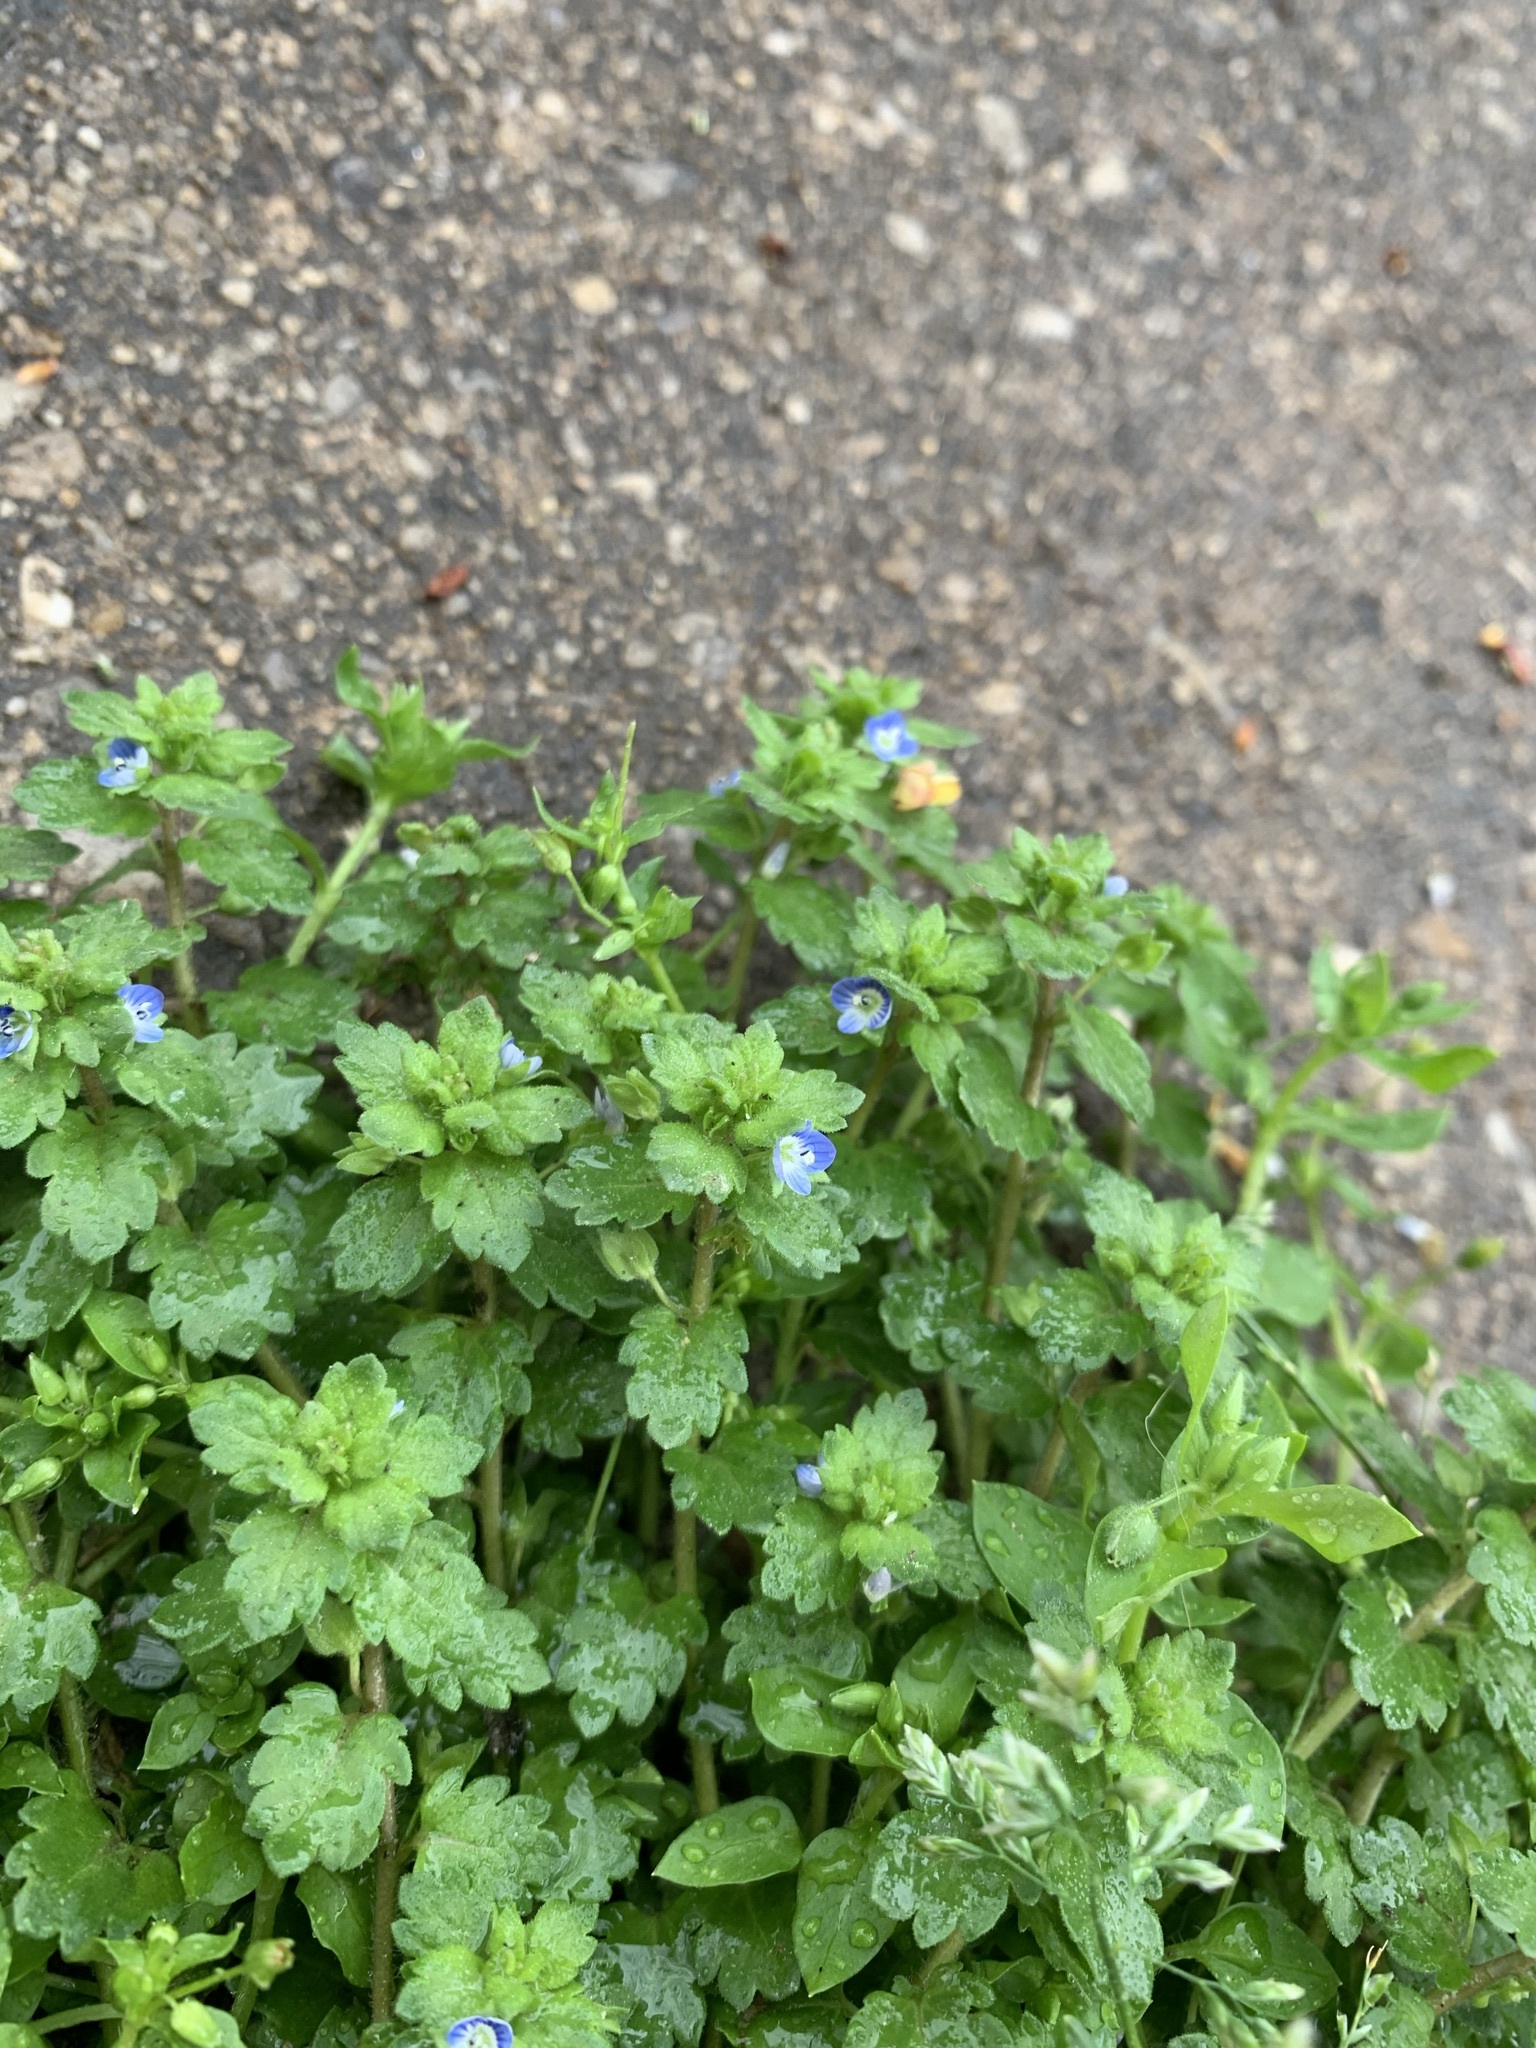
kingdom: Plantae
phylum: Tracheophyta
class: Magnoliopsida
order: Lamiales
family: Plantaginaceae
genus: Veronica
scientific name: Veronica persica
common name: Common field-speedwell
